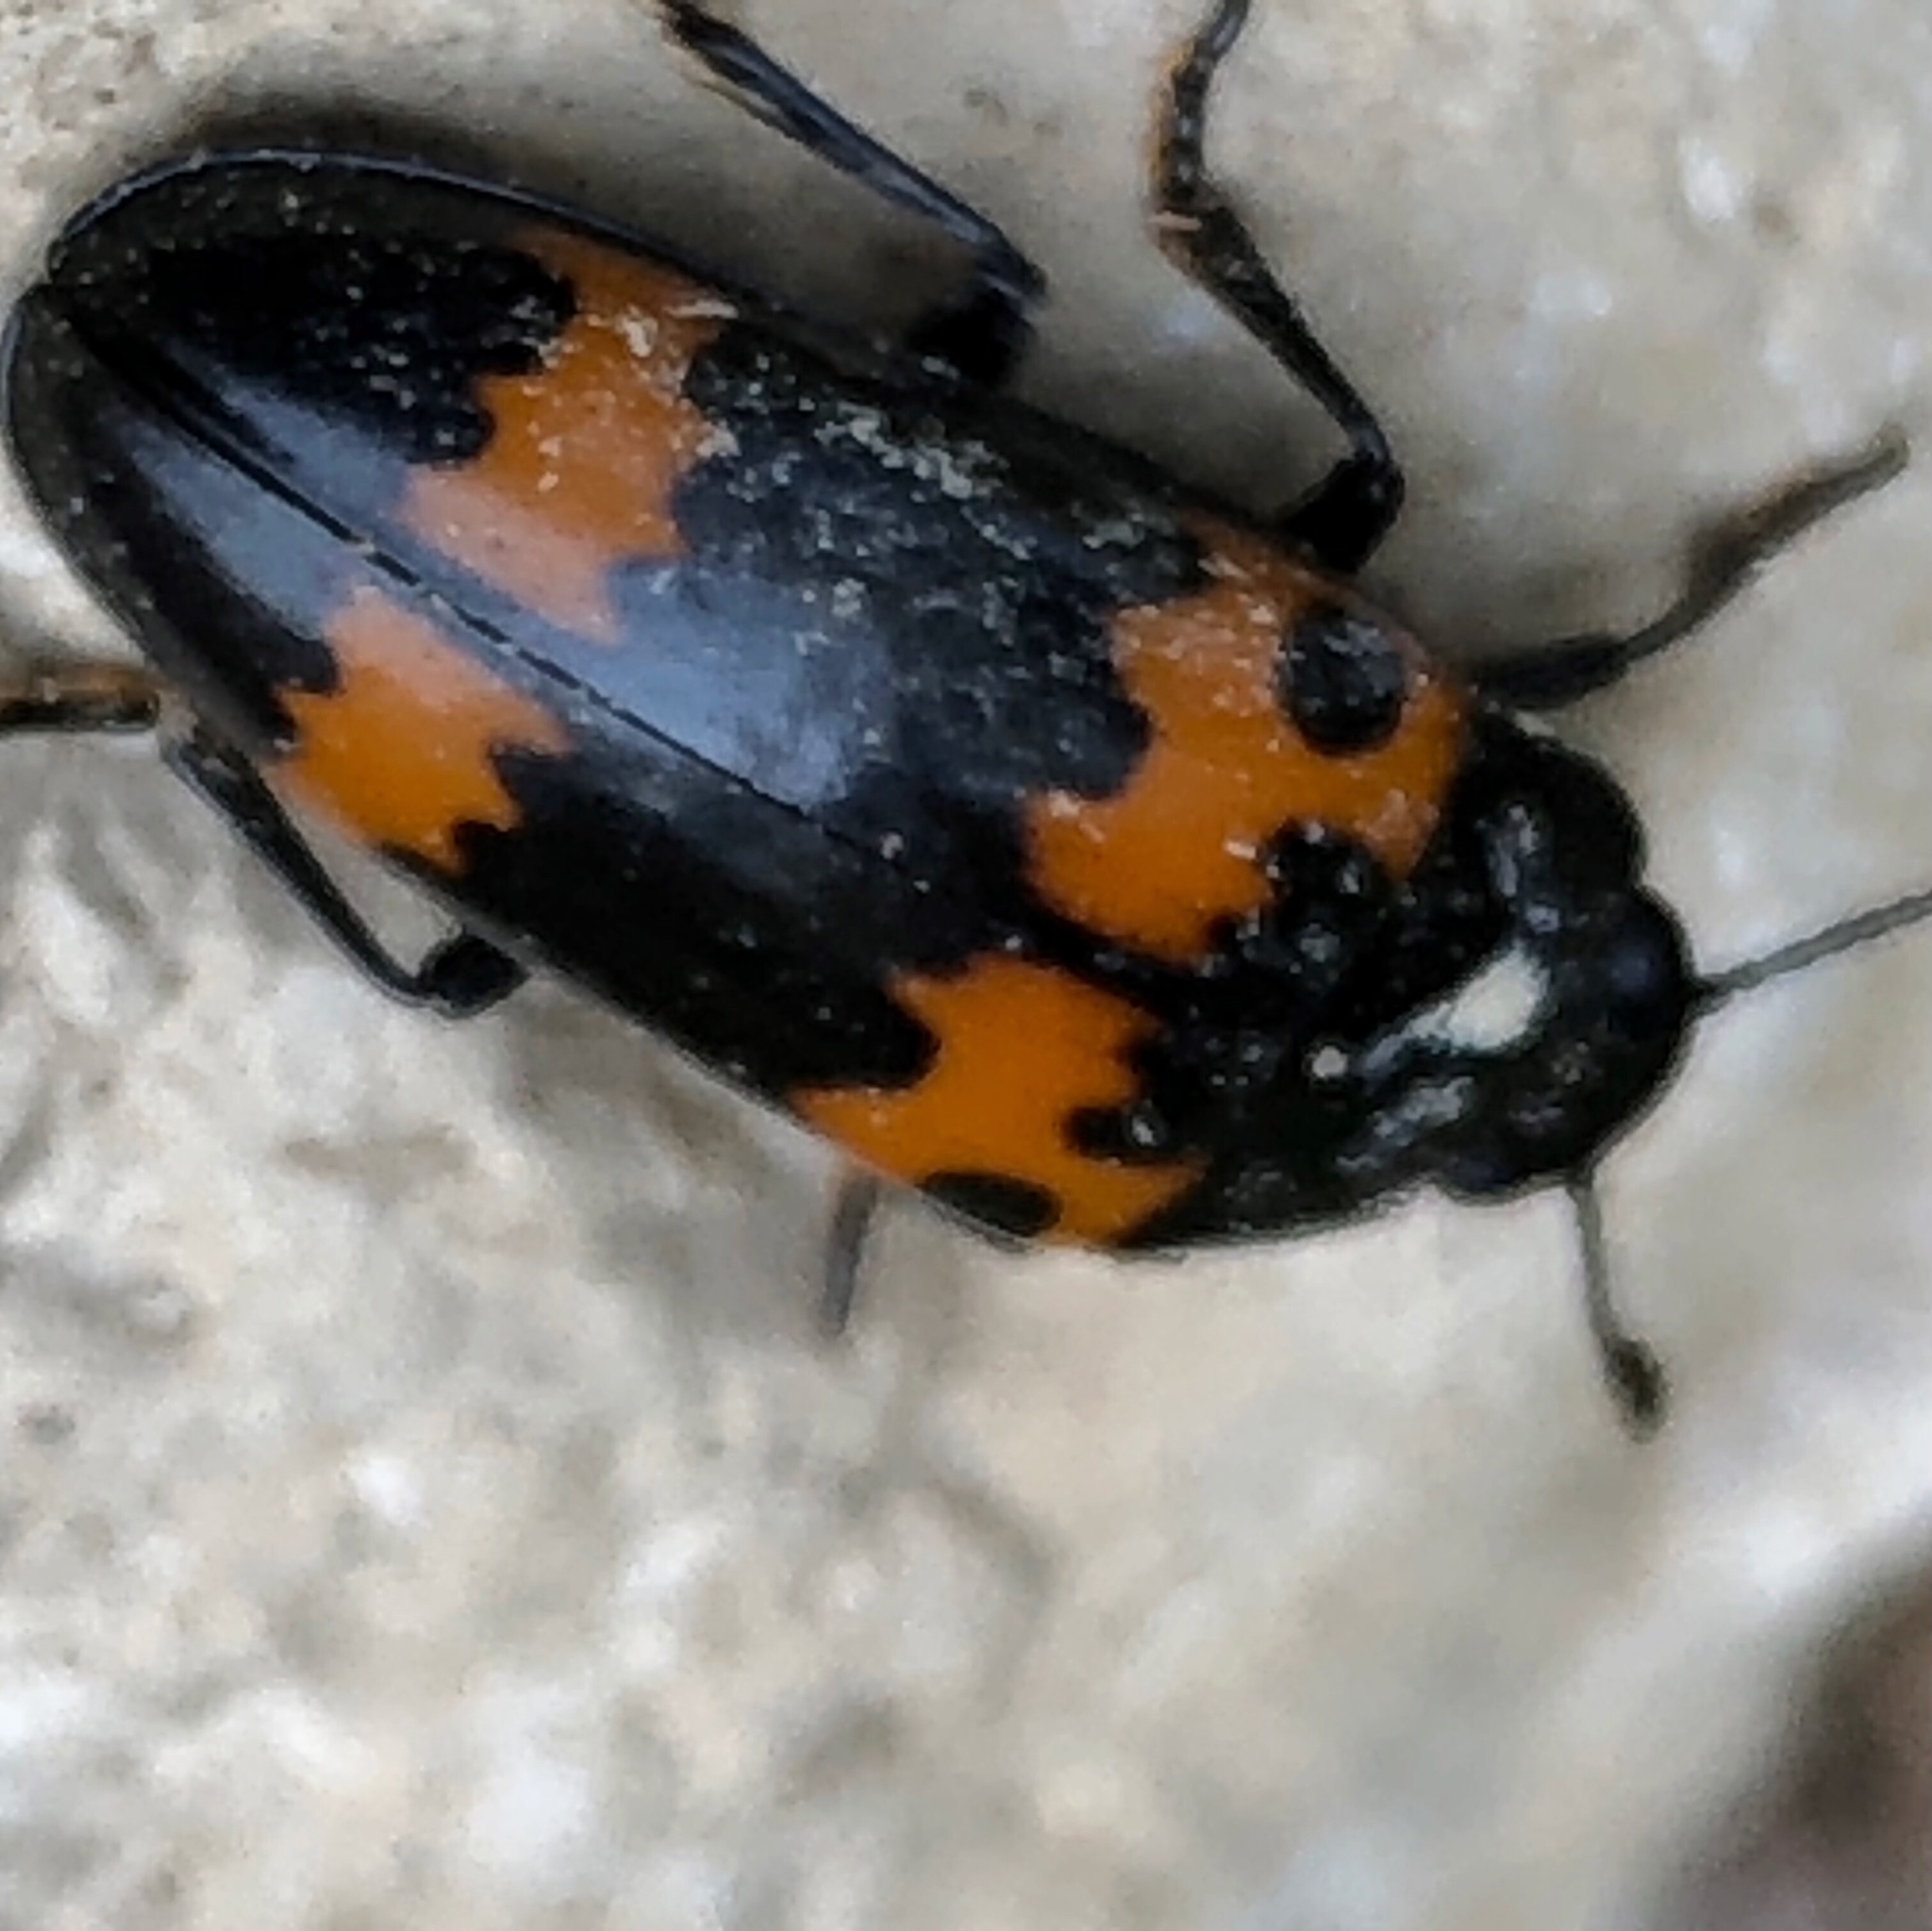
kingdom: Animalia
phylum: Arthropoda
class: Insecta
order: Coleoptera
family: Erotylidae
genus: Megalodacne
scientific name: Megalodacne fasciata
